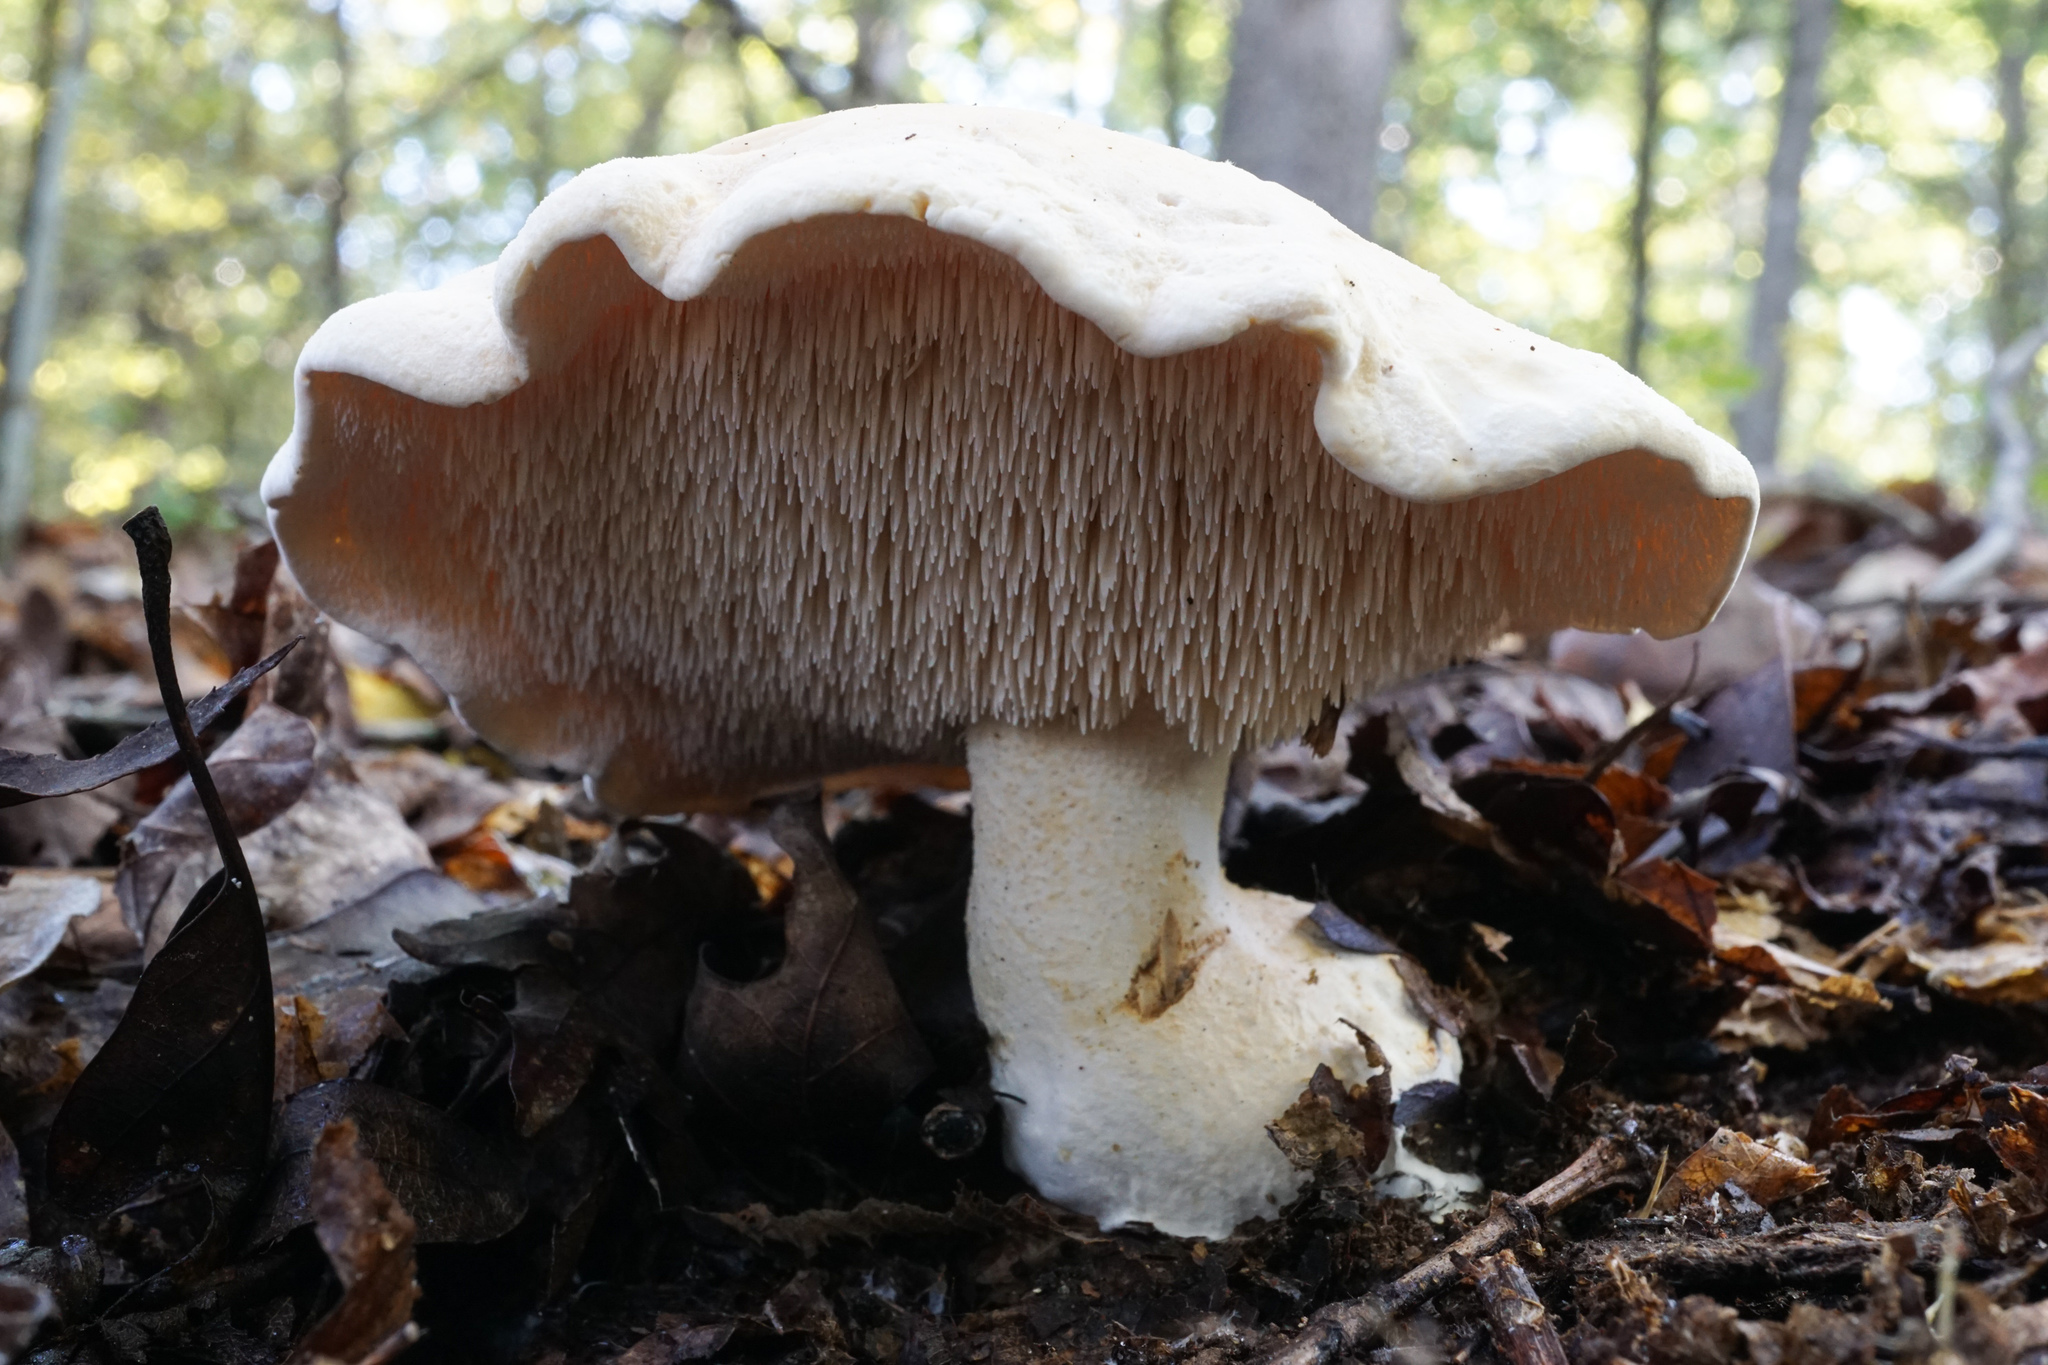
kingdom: Fungi
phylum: Basidiomycota
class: Agaricomycetes
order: Cantharellales
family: Hydnaceae
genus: Hydnum
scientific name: Hydnum albidum
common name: White hedgehog
